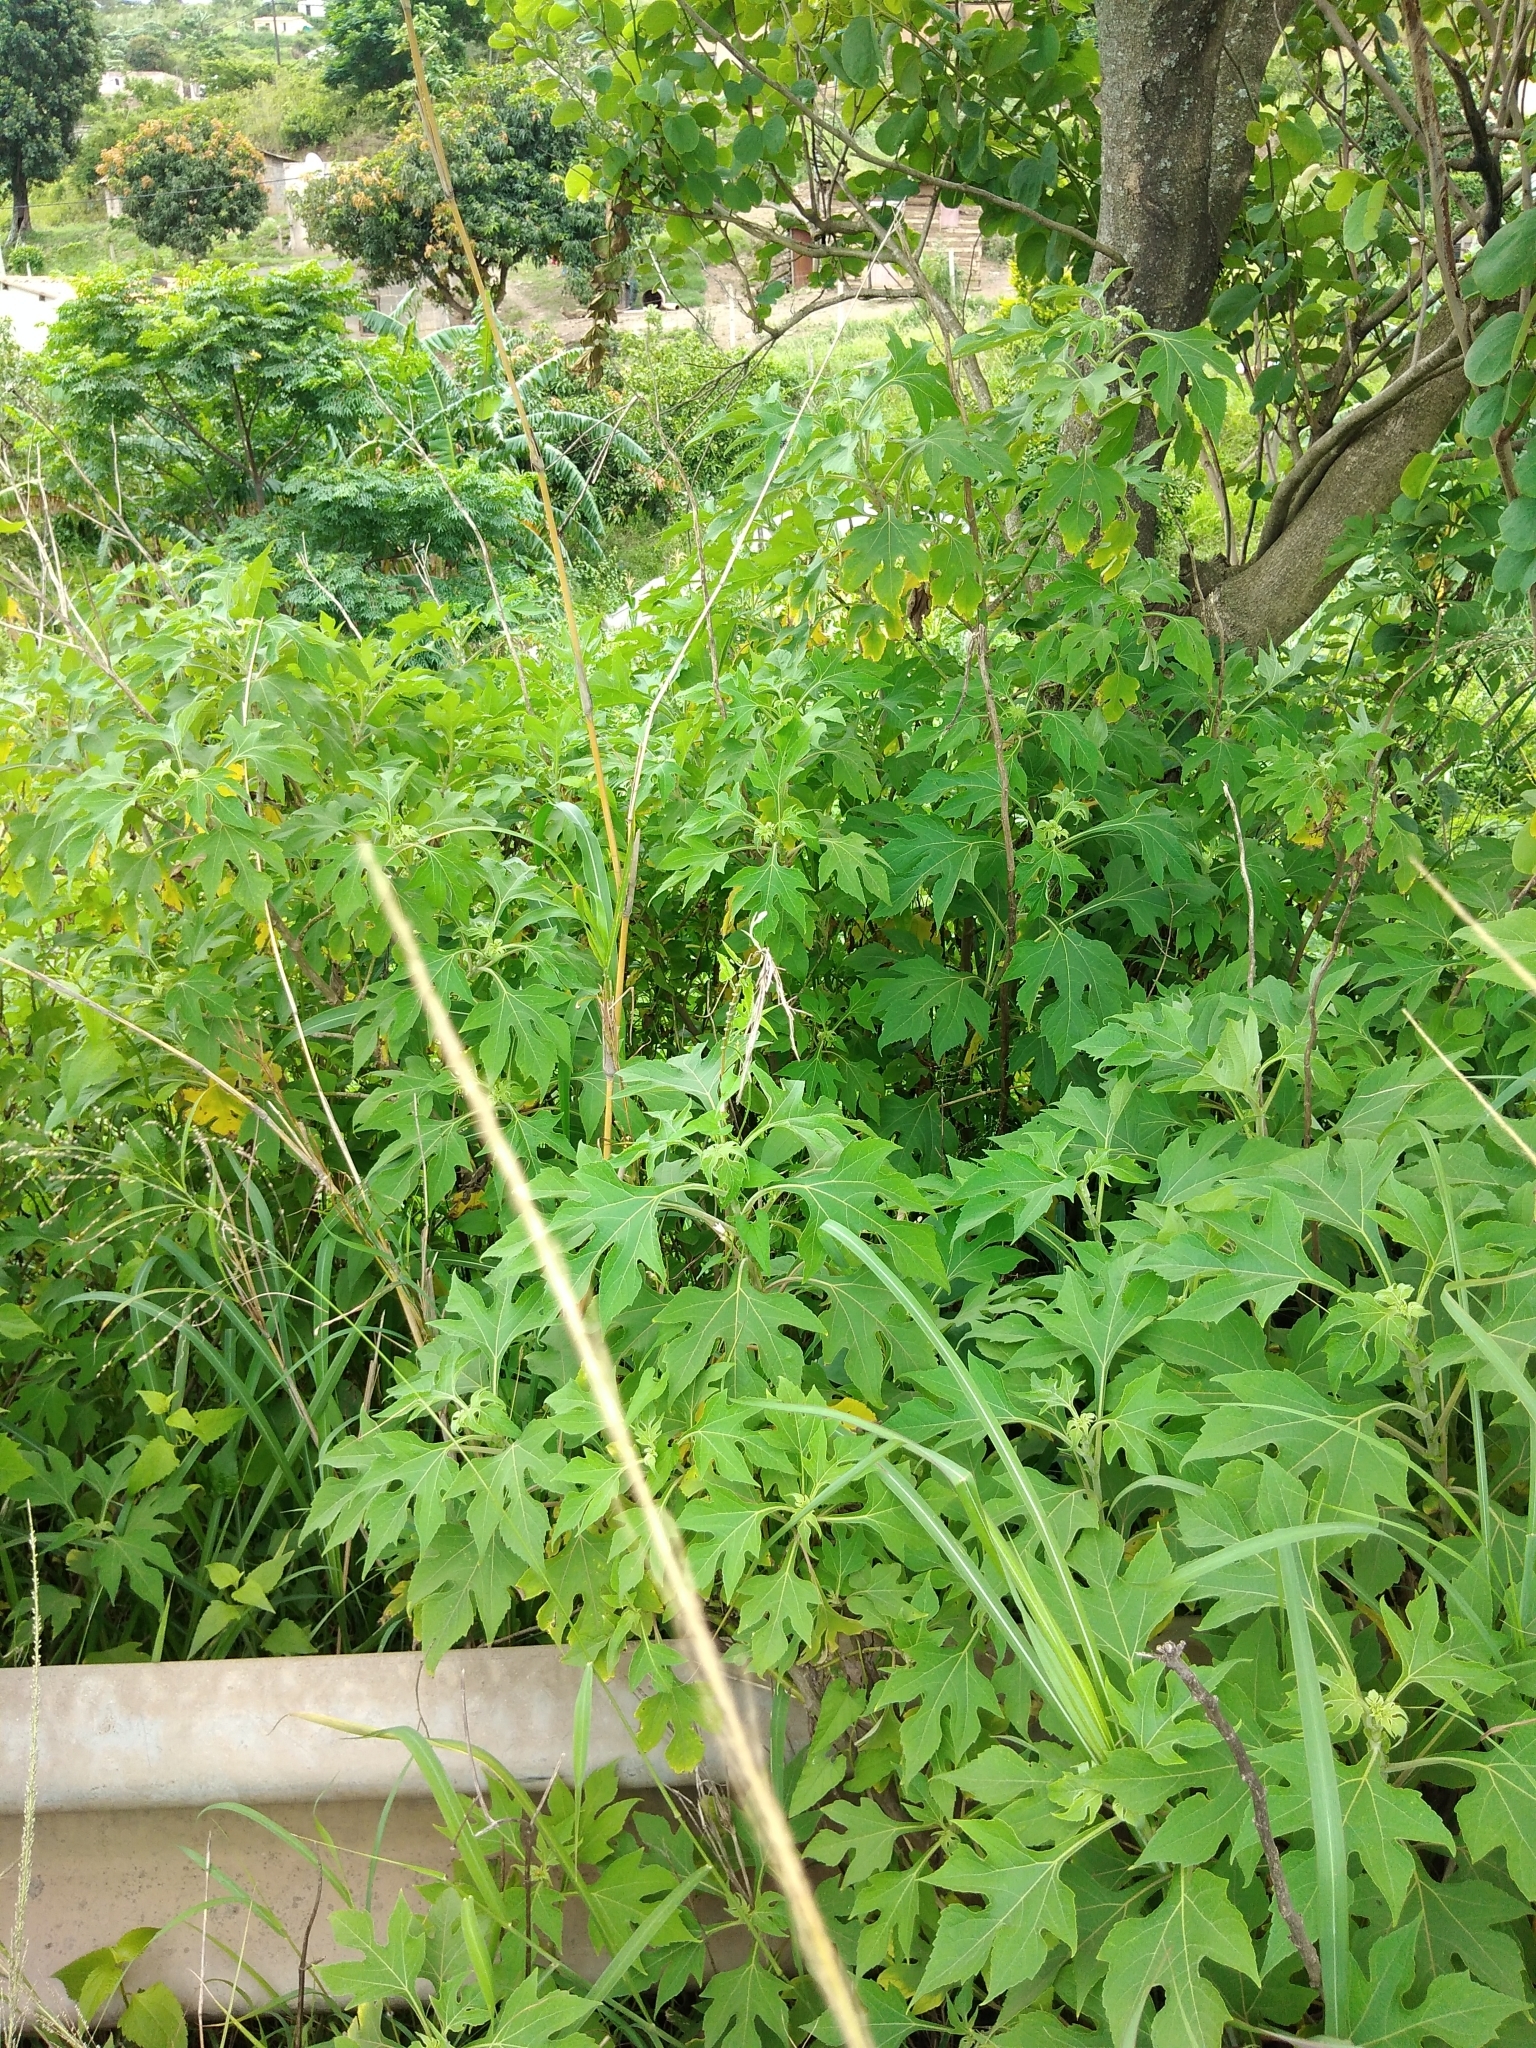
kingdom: Plantae
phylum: Tracheophyta
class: Magnoliopsida
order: Asterales
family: Asteraceae
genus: Tithonia
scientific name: Tithonia diversifolia
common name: Tree marigold
